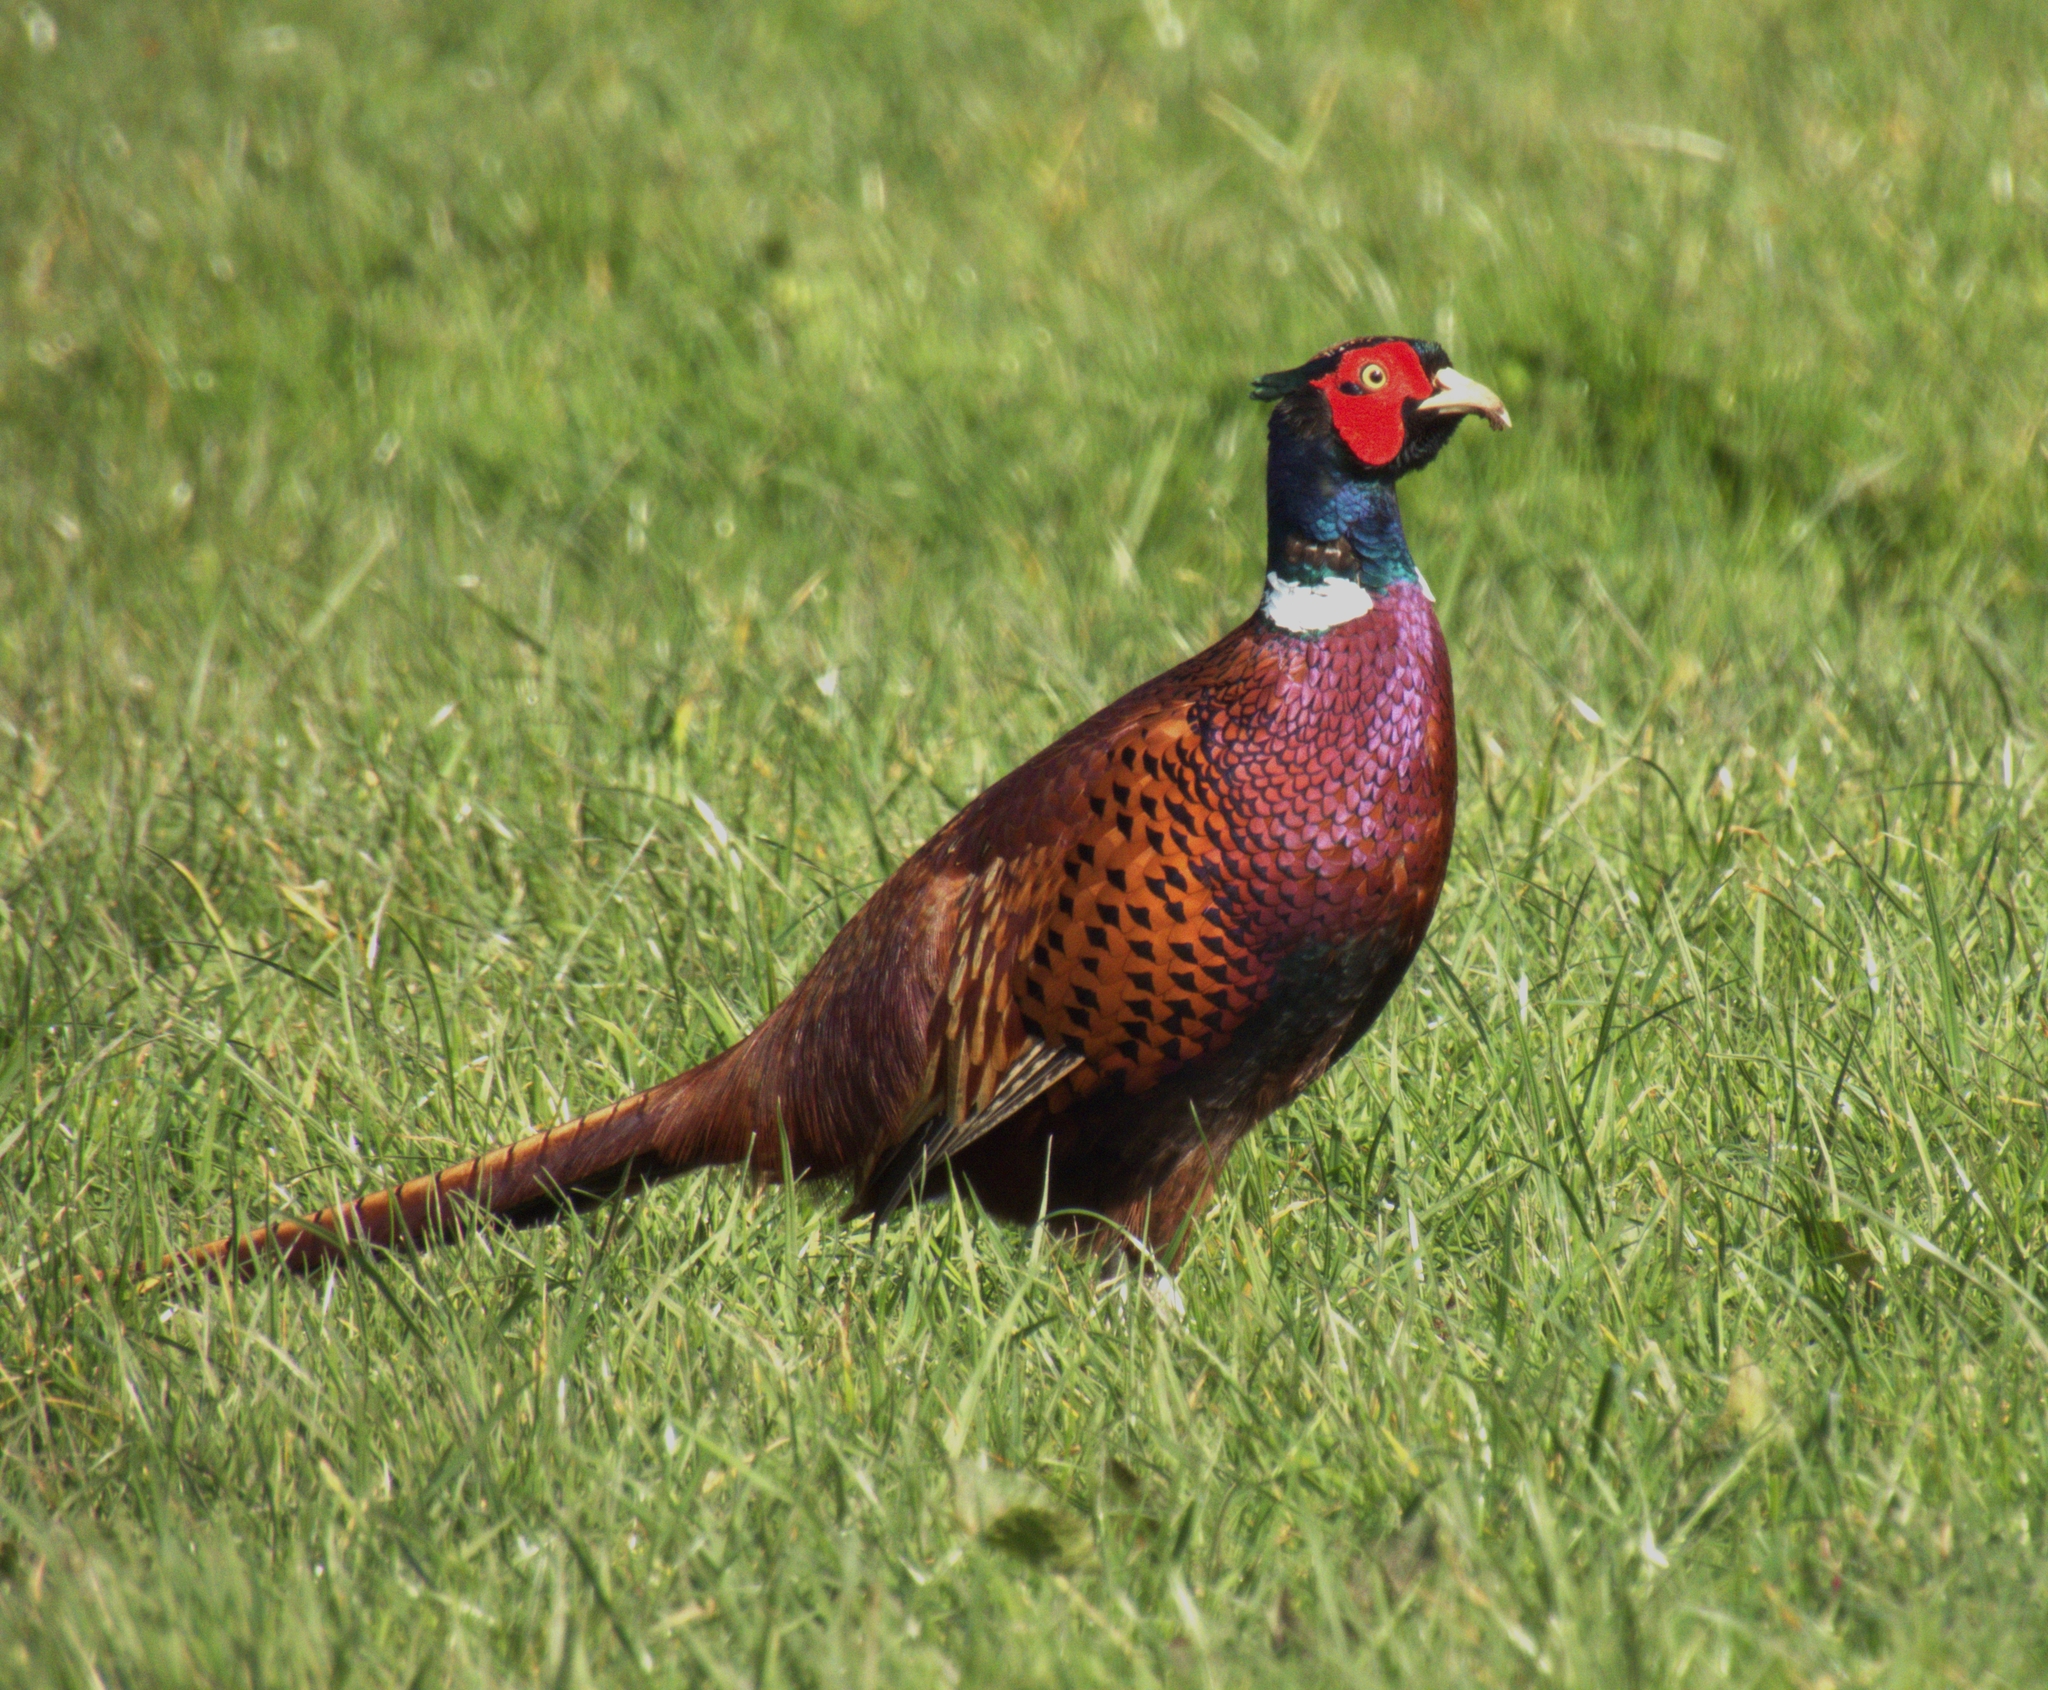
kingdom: Animalia
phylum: Chordata
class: Aves
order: Galliformes
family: Phasianidae
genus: Phasianus
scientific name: Phasianus colchicus
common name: Common pheasant
